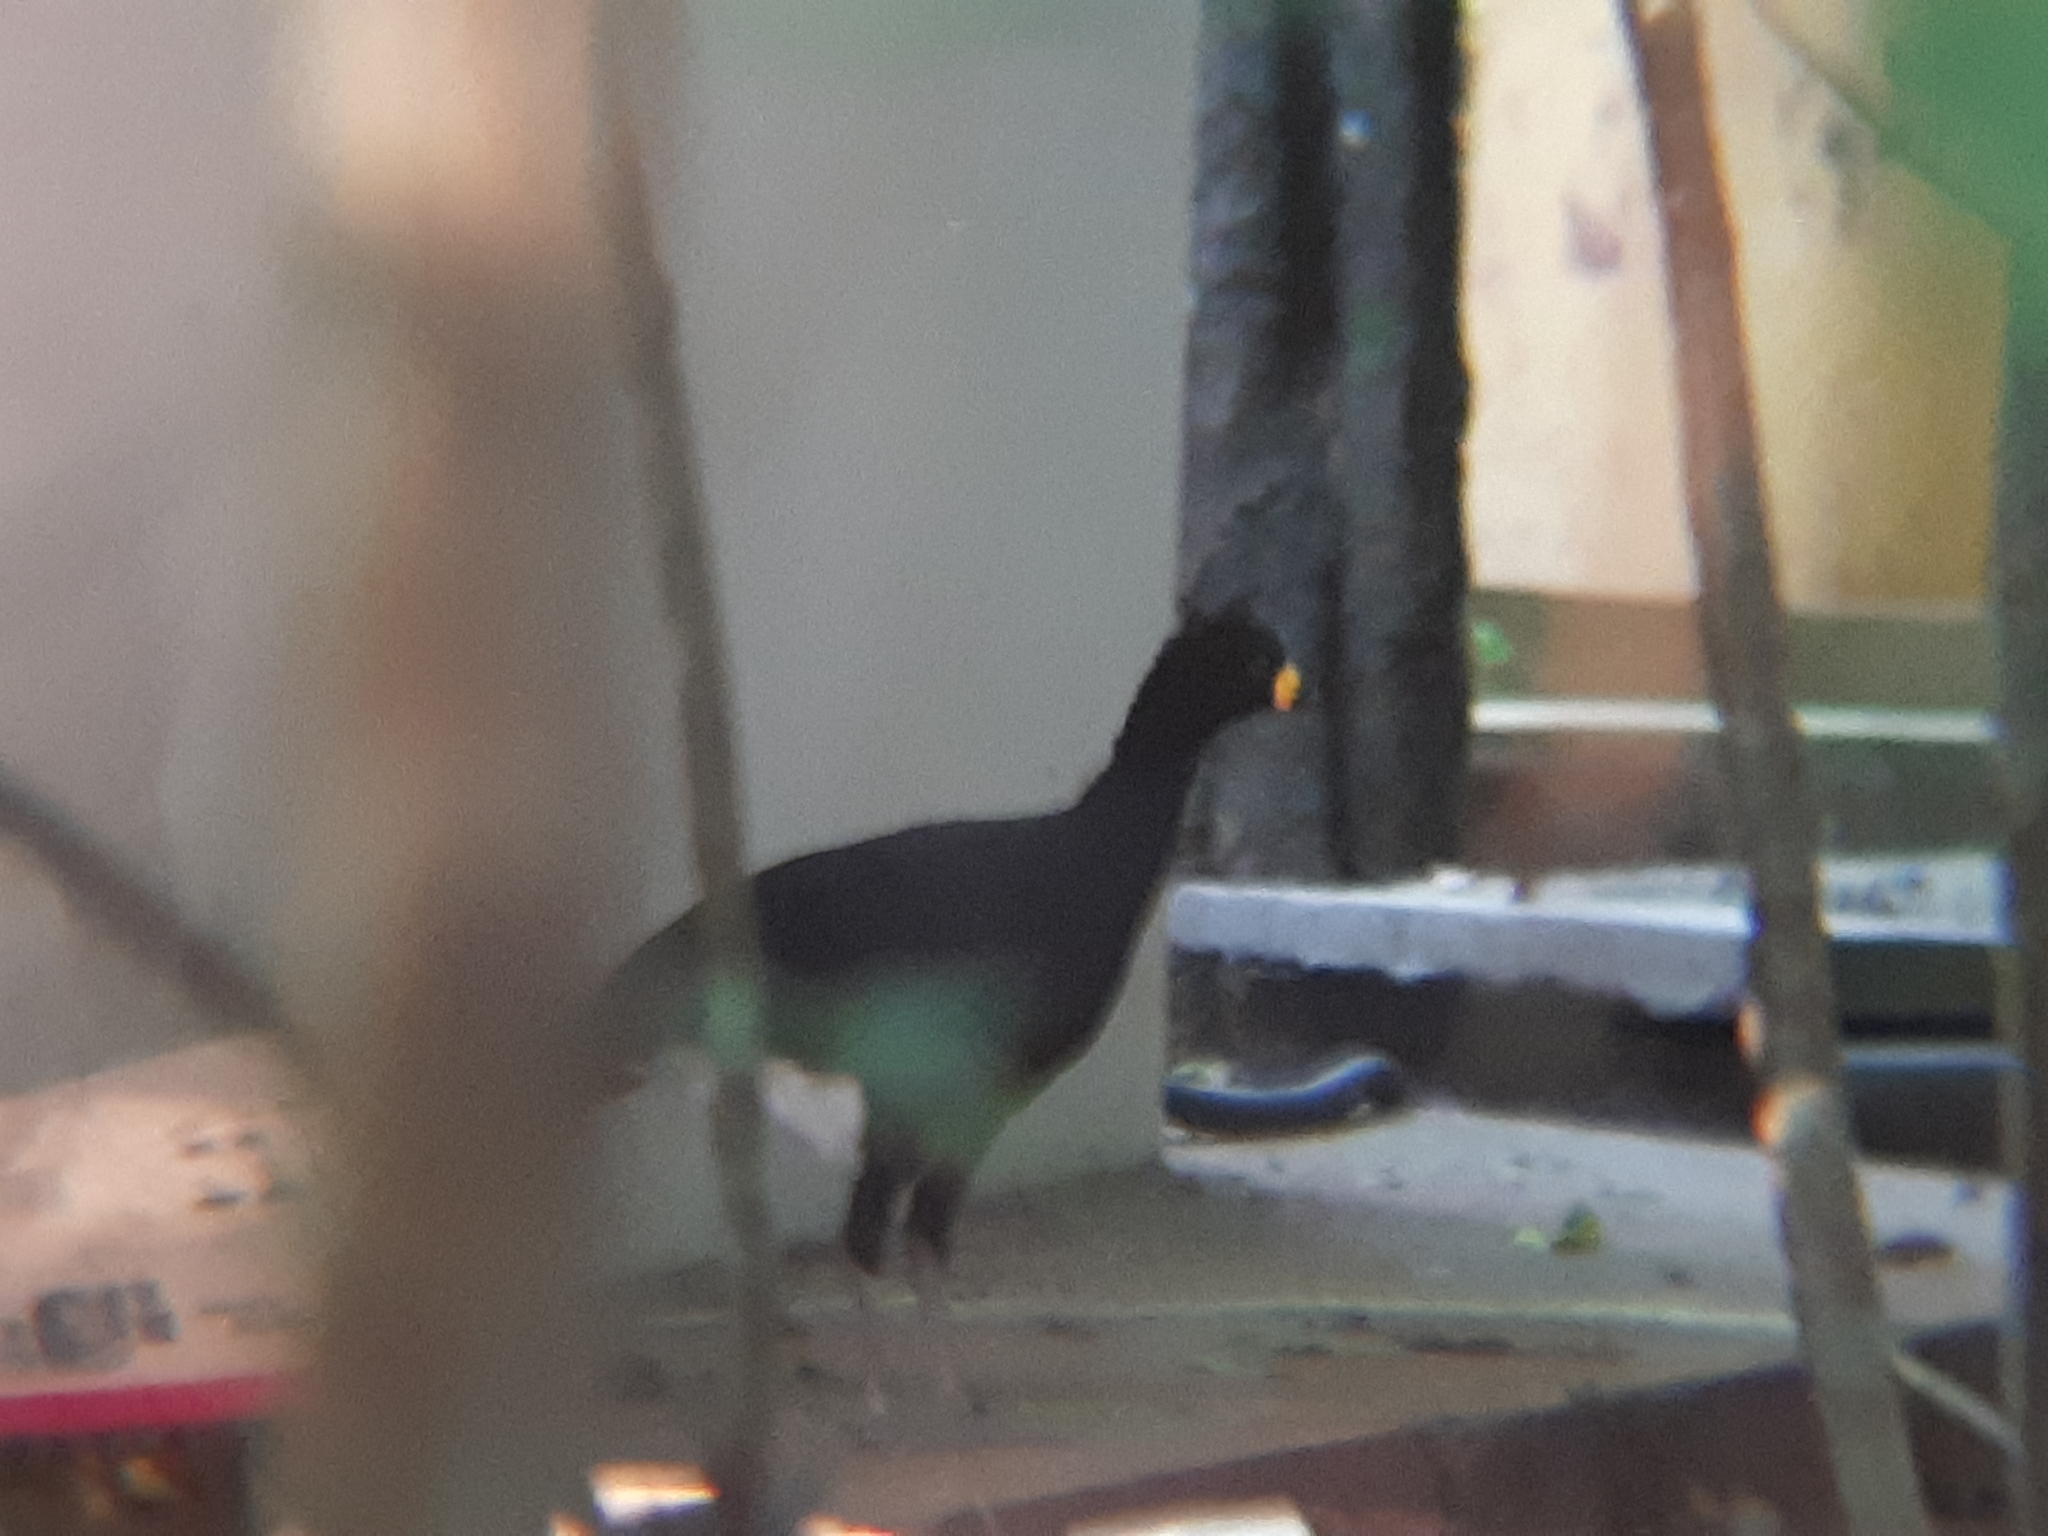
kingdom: Animalia
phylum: Chordata
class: Aves
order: Galliformes
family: Cracidae
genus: Crax
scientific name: Crax fasciolata
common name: Bare-faced curassow
